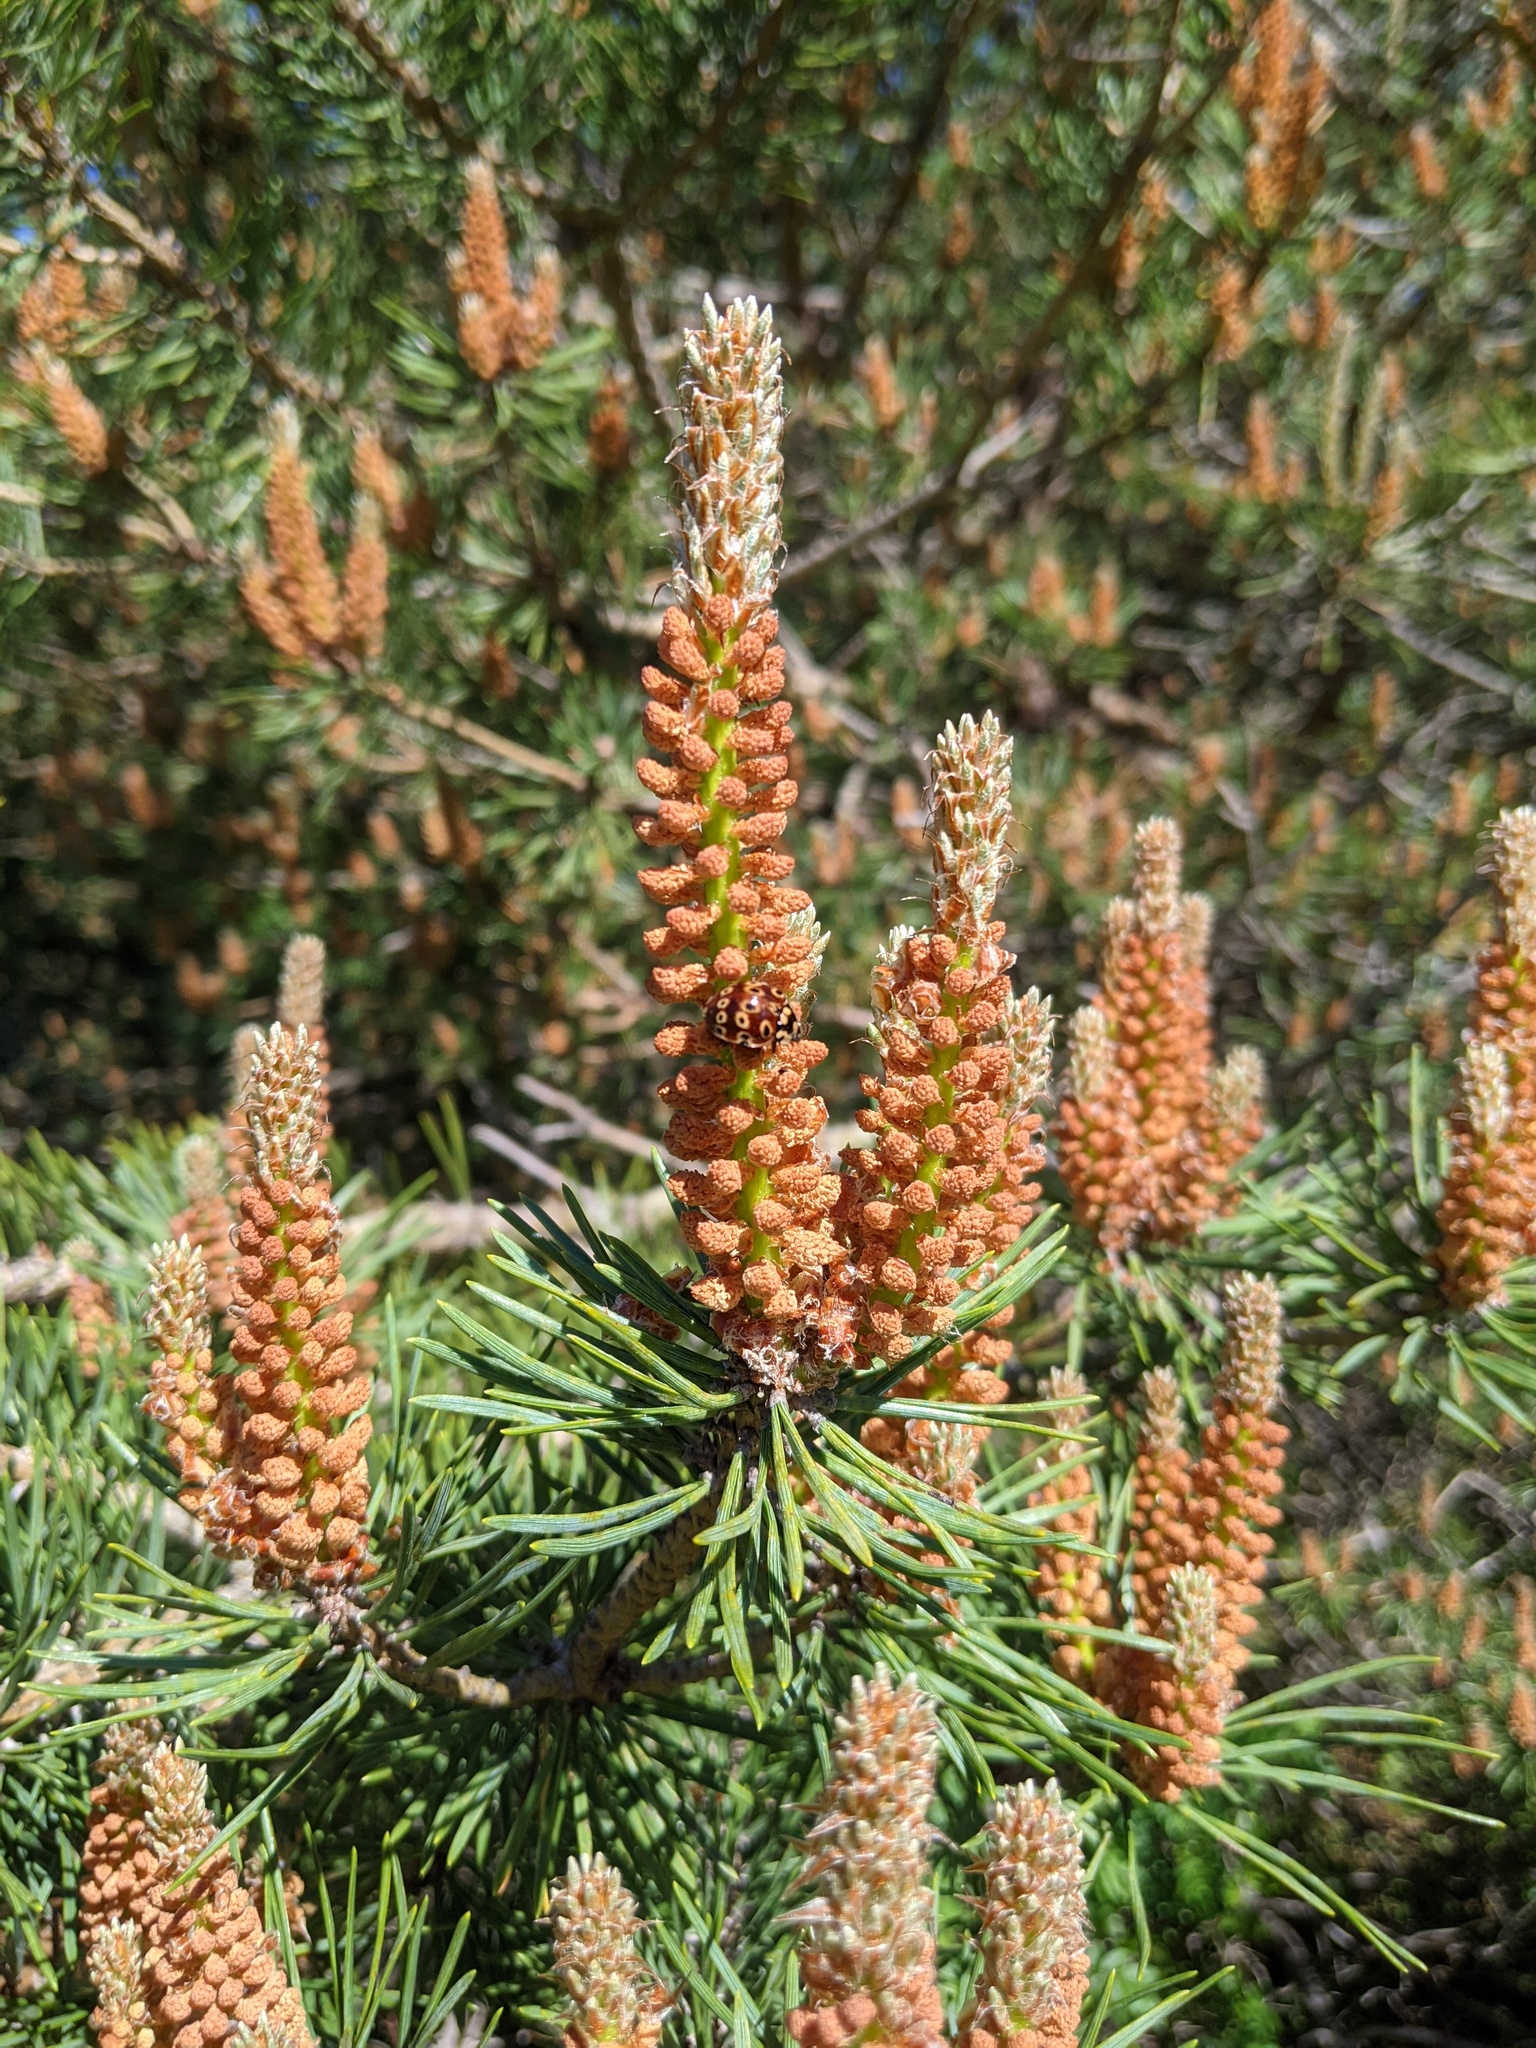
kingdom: Plantae
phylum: Tracheophyta
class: Pinopsida
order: Pinales
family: Pinaceae
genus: Pinus
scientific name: Pinus sylvestris
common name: Scots pine
